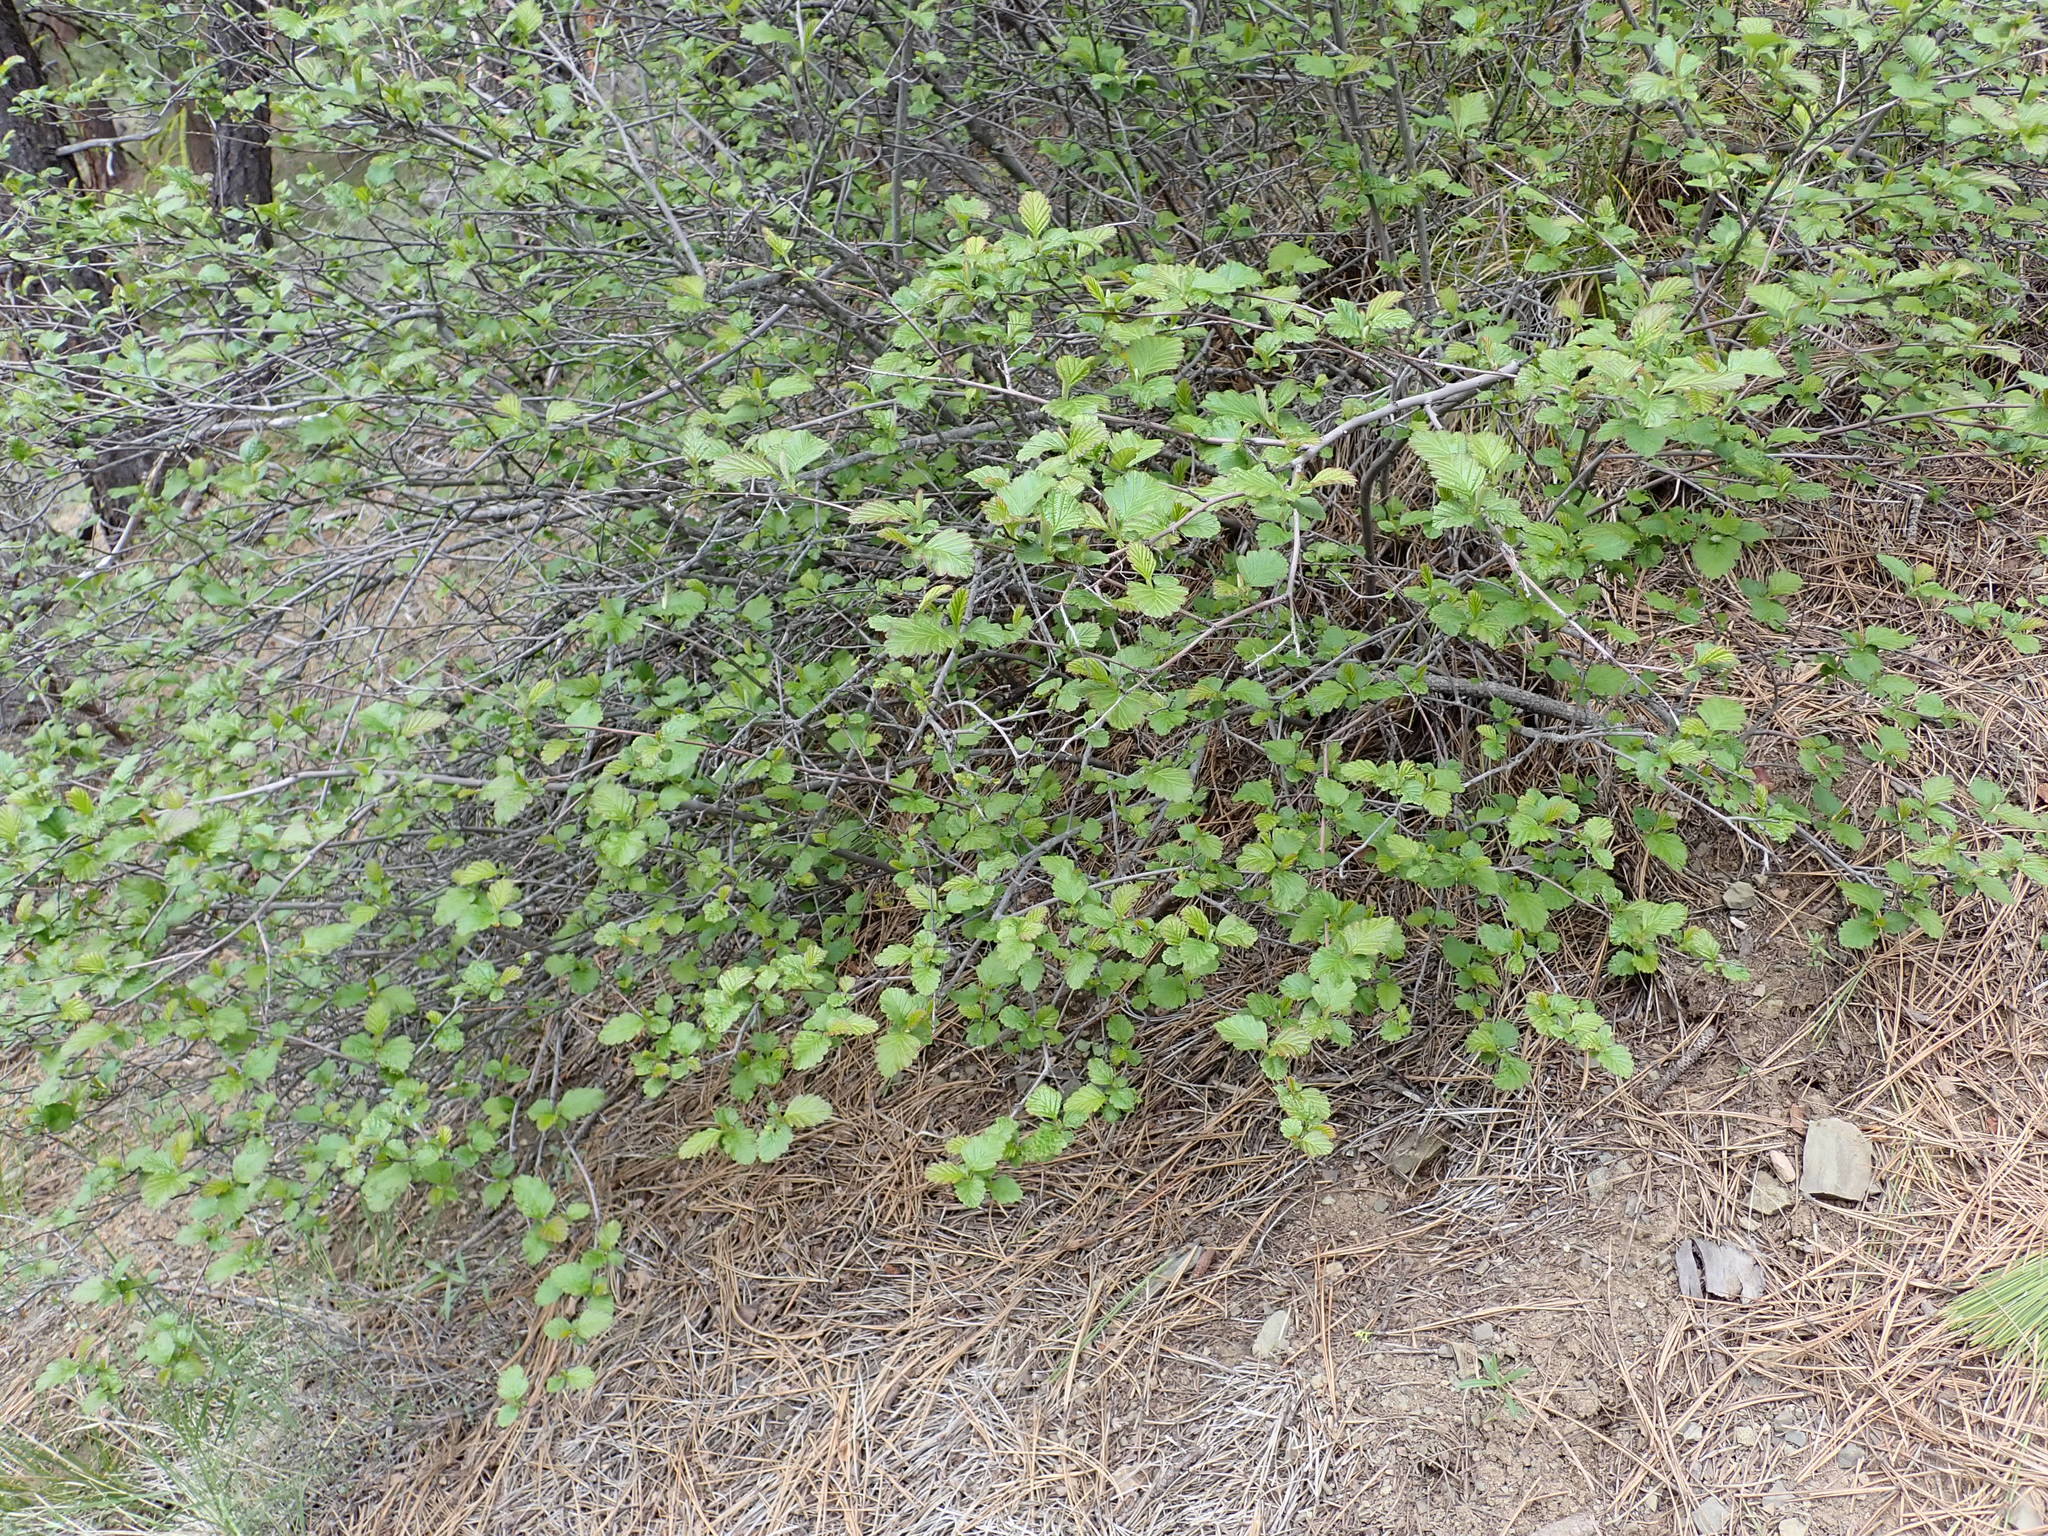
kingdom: Plantae
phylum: Tracheophyta
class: Magnoliopsida
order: Rosales
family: Rosaceae
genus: Holodiscus
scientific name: Holodiscus discolor
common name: Oceanspray
